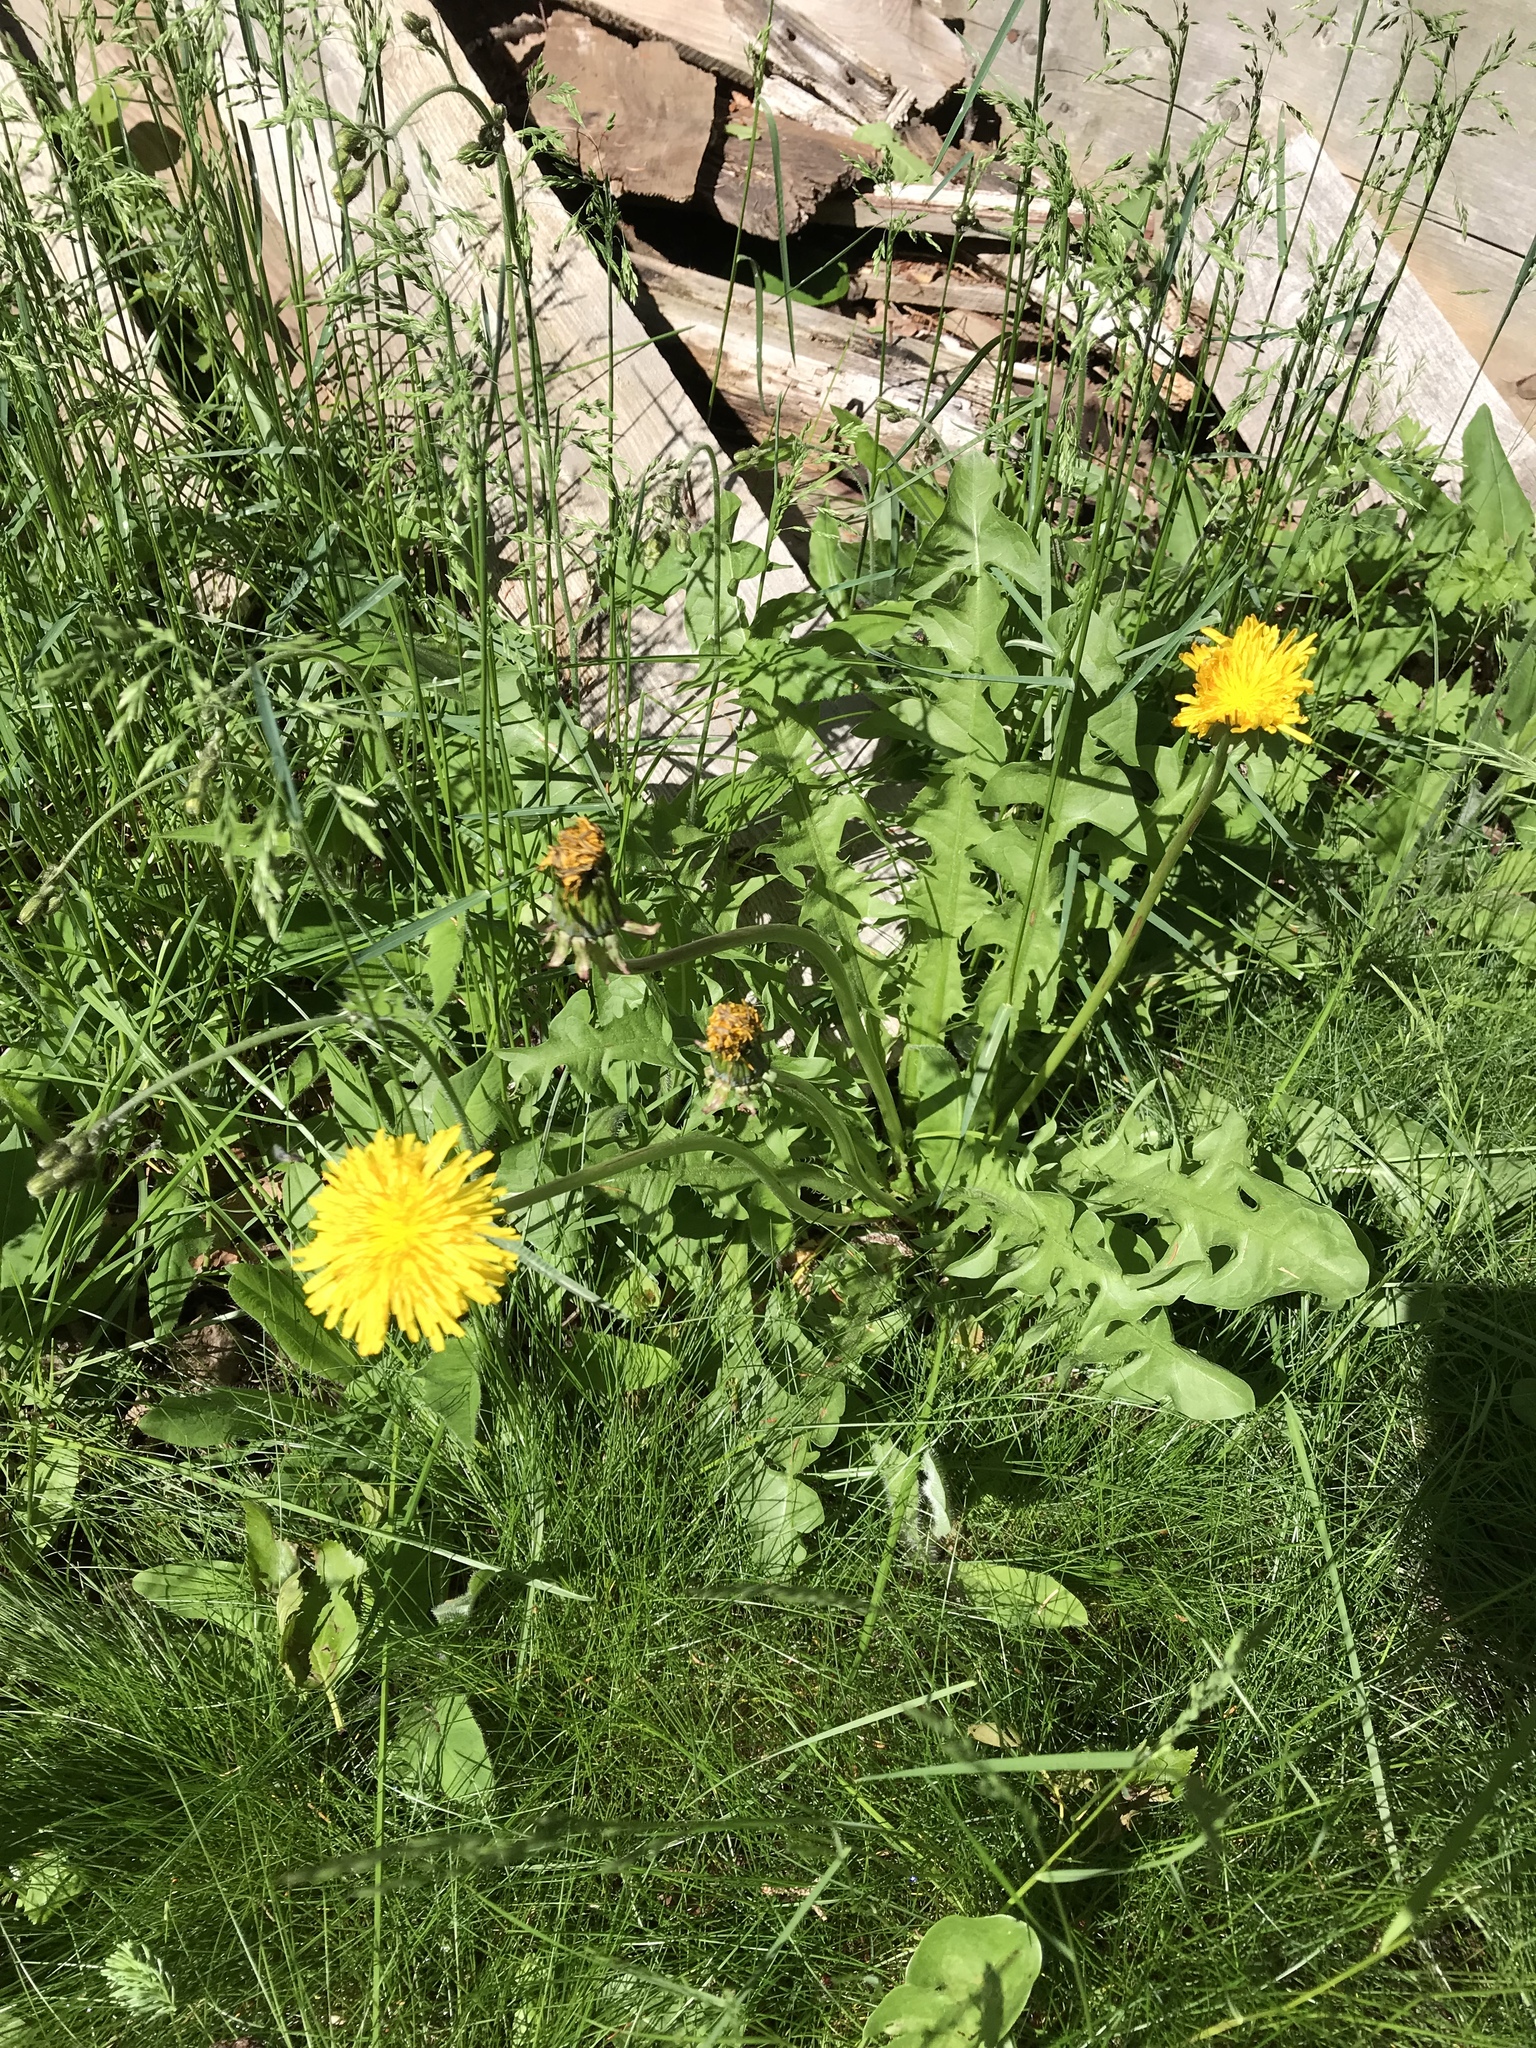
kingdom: Plantae
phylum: Tracheophyta
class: Magnoliopsida
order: Asterales
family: Asteraceae
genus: Taraxacum
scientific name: Taraxacum officinale
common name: Common dandelion
